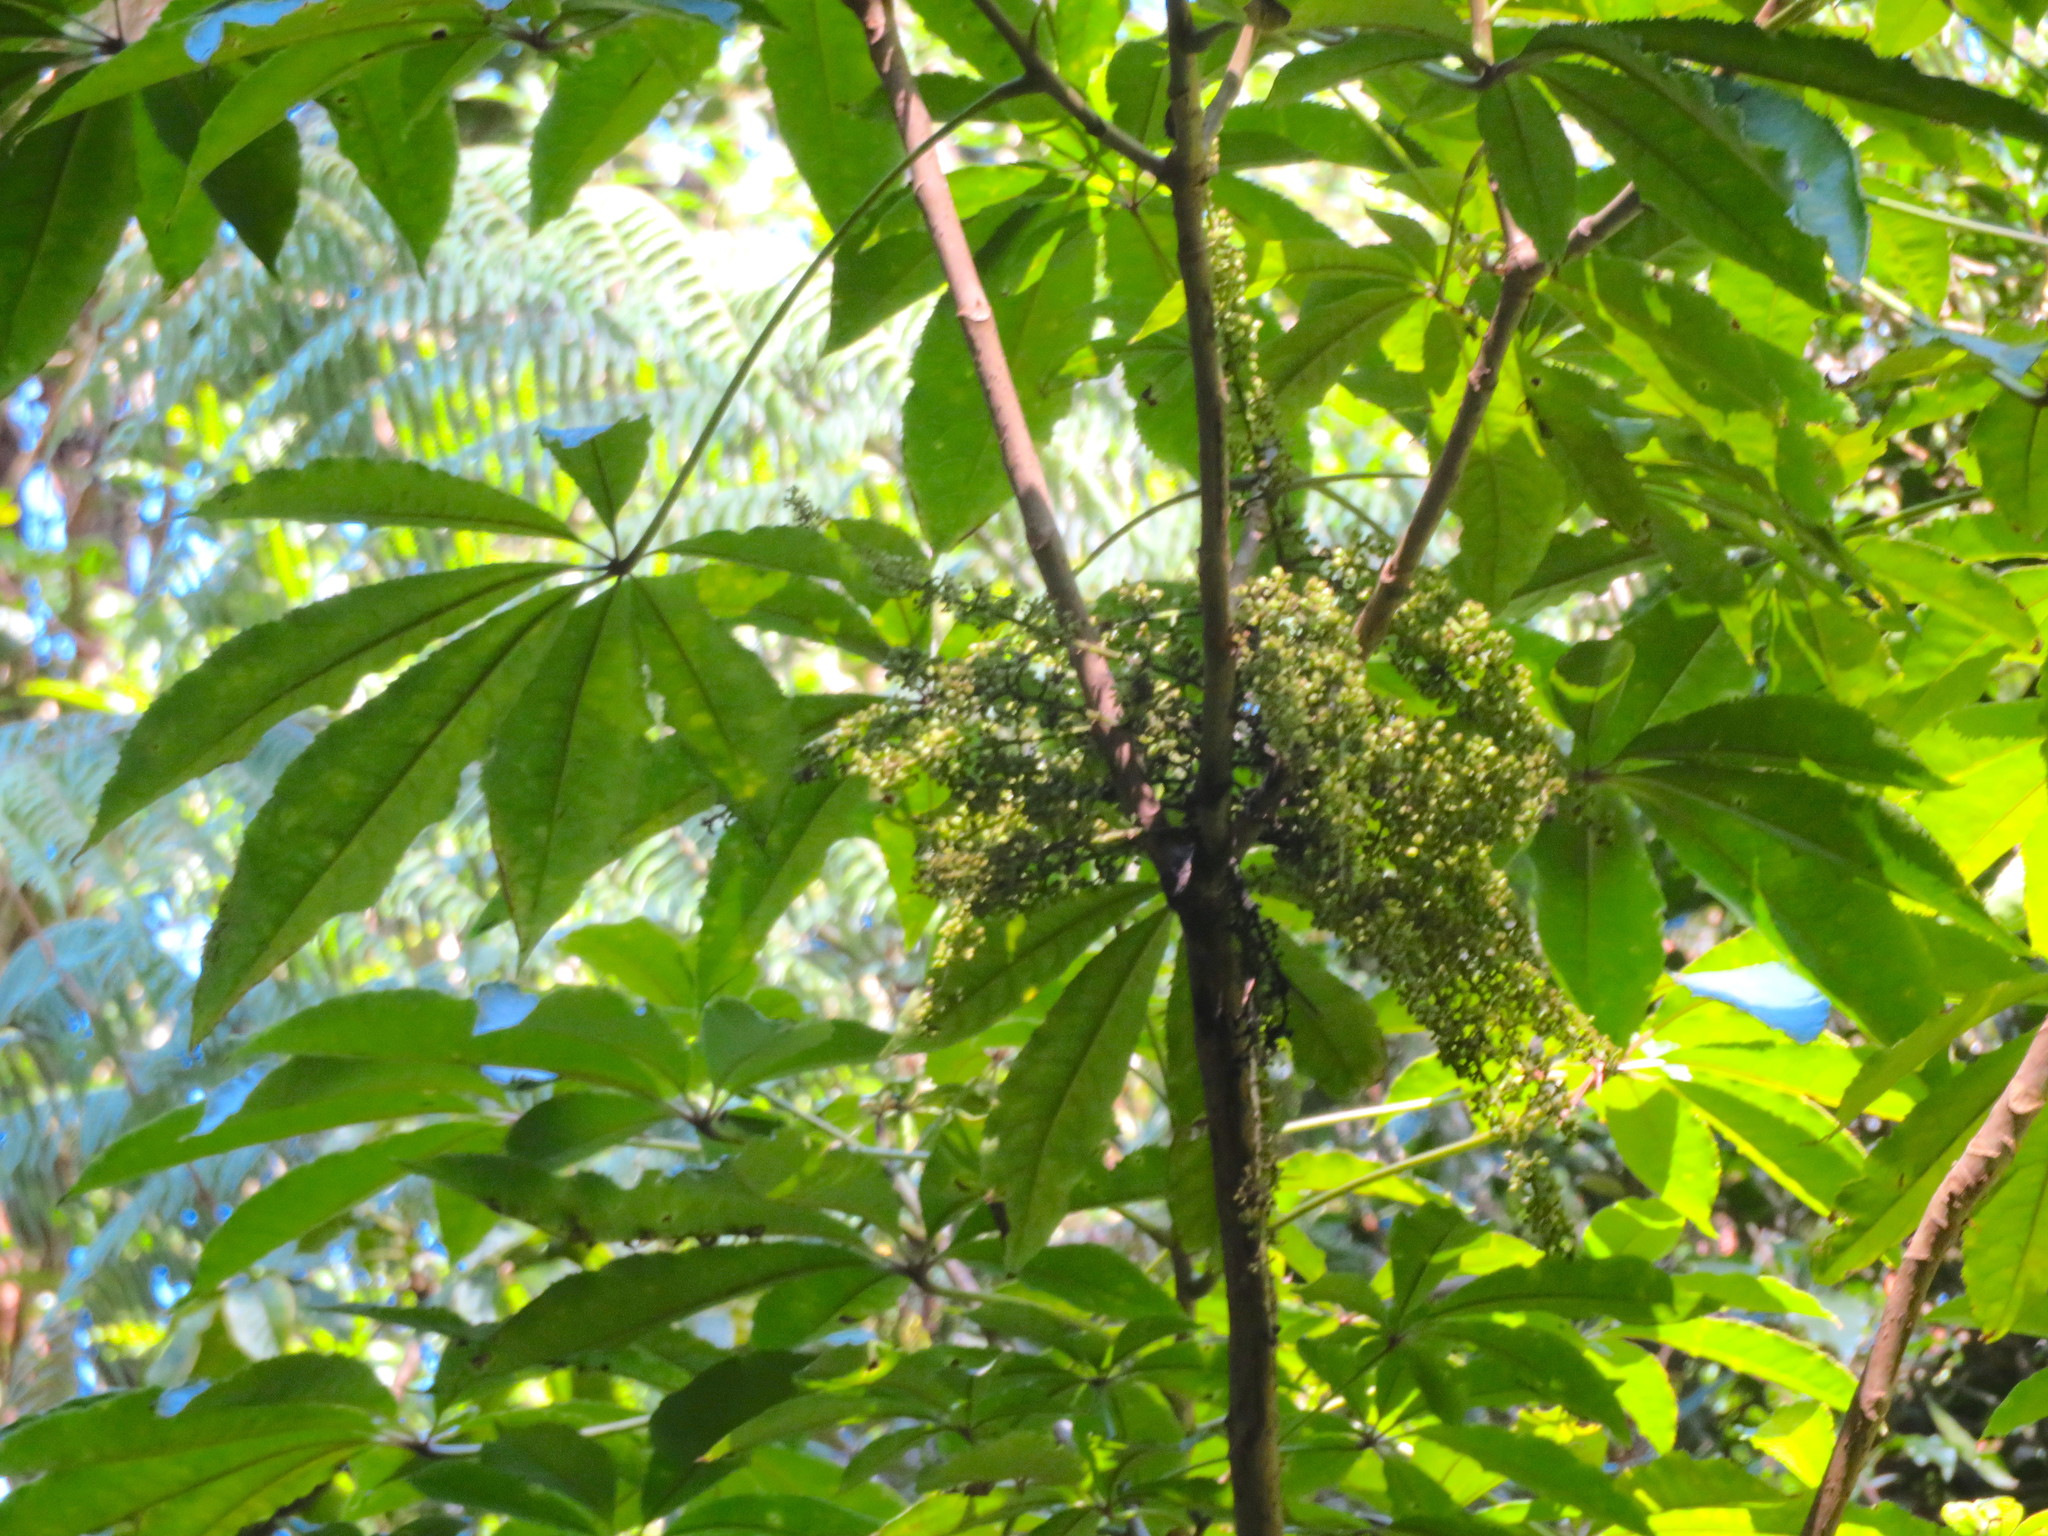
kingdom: Plantae
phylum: Tracheophyta
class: Magnoliopsida
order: Apiales
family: Araliaceae
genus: Schefflera
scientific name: Schefflera digitata
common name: Pate
